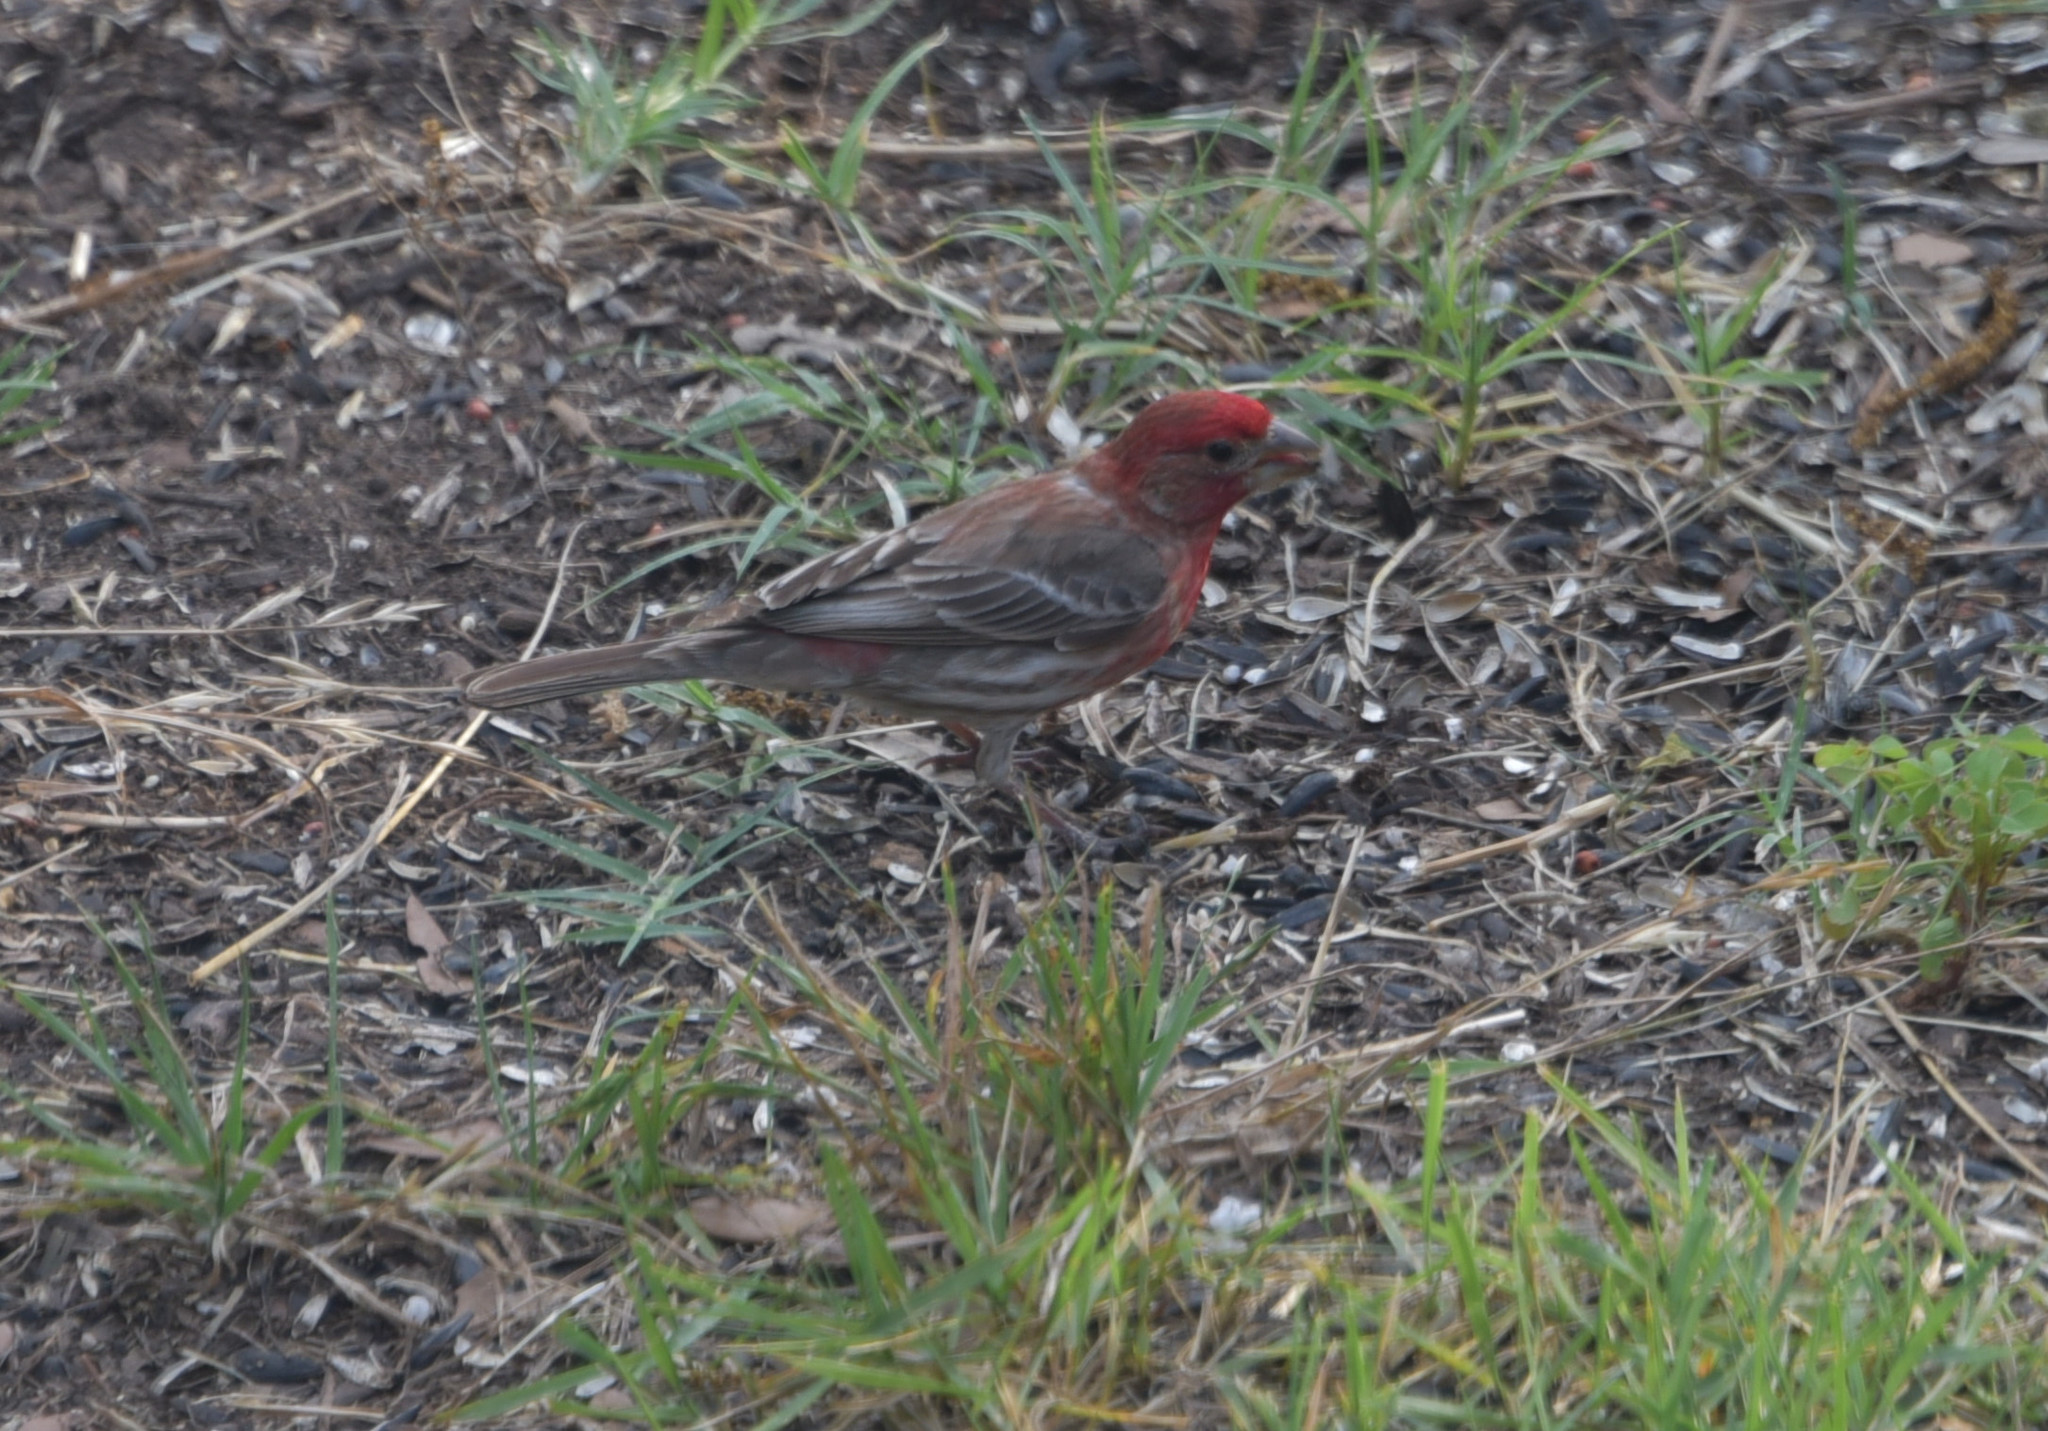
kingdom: Animalia
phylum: Chordata
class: Aves
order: Passeriformes
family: Fringillidae
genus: Haemorhous
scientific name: Haemorhous mexicanus
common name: House finch
